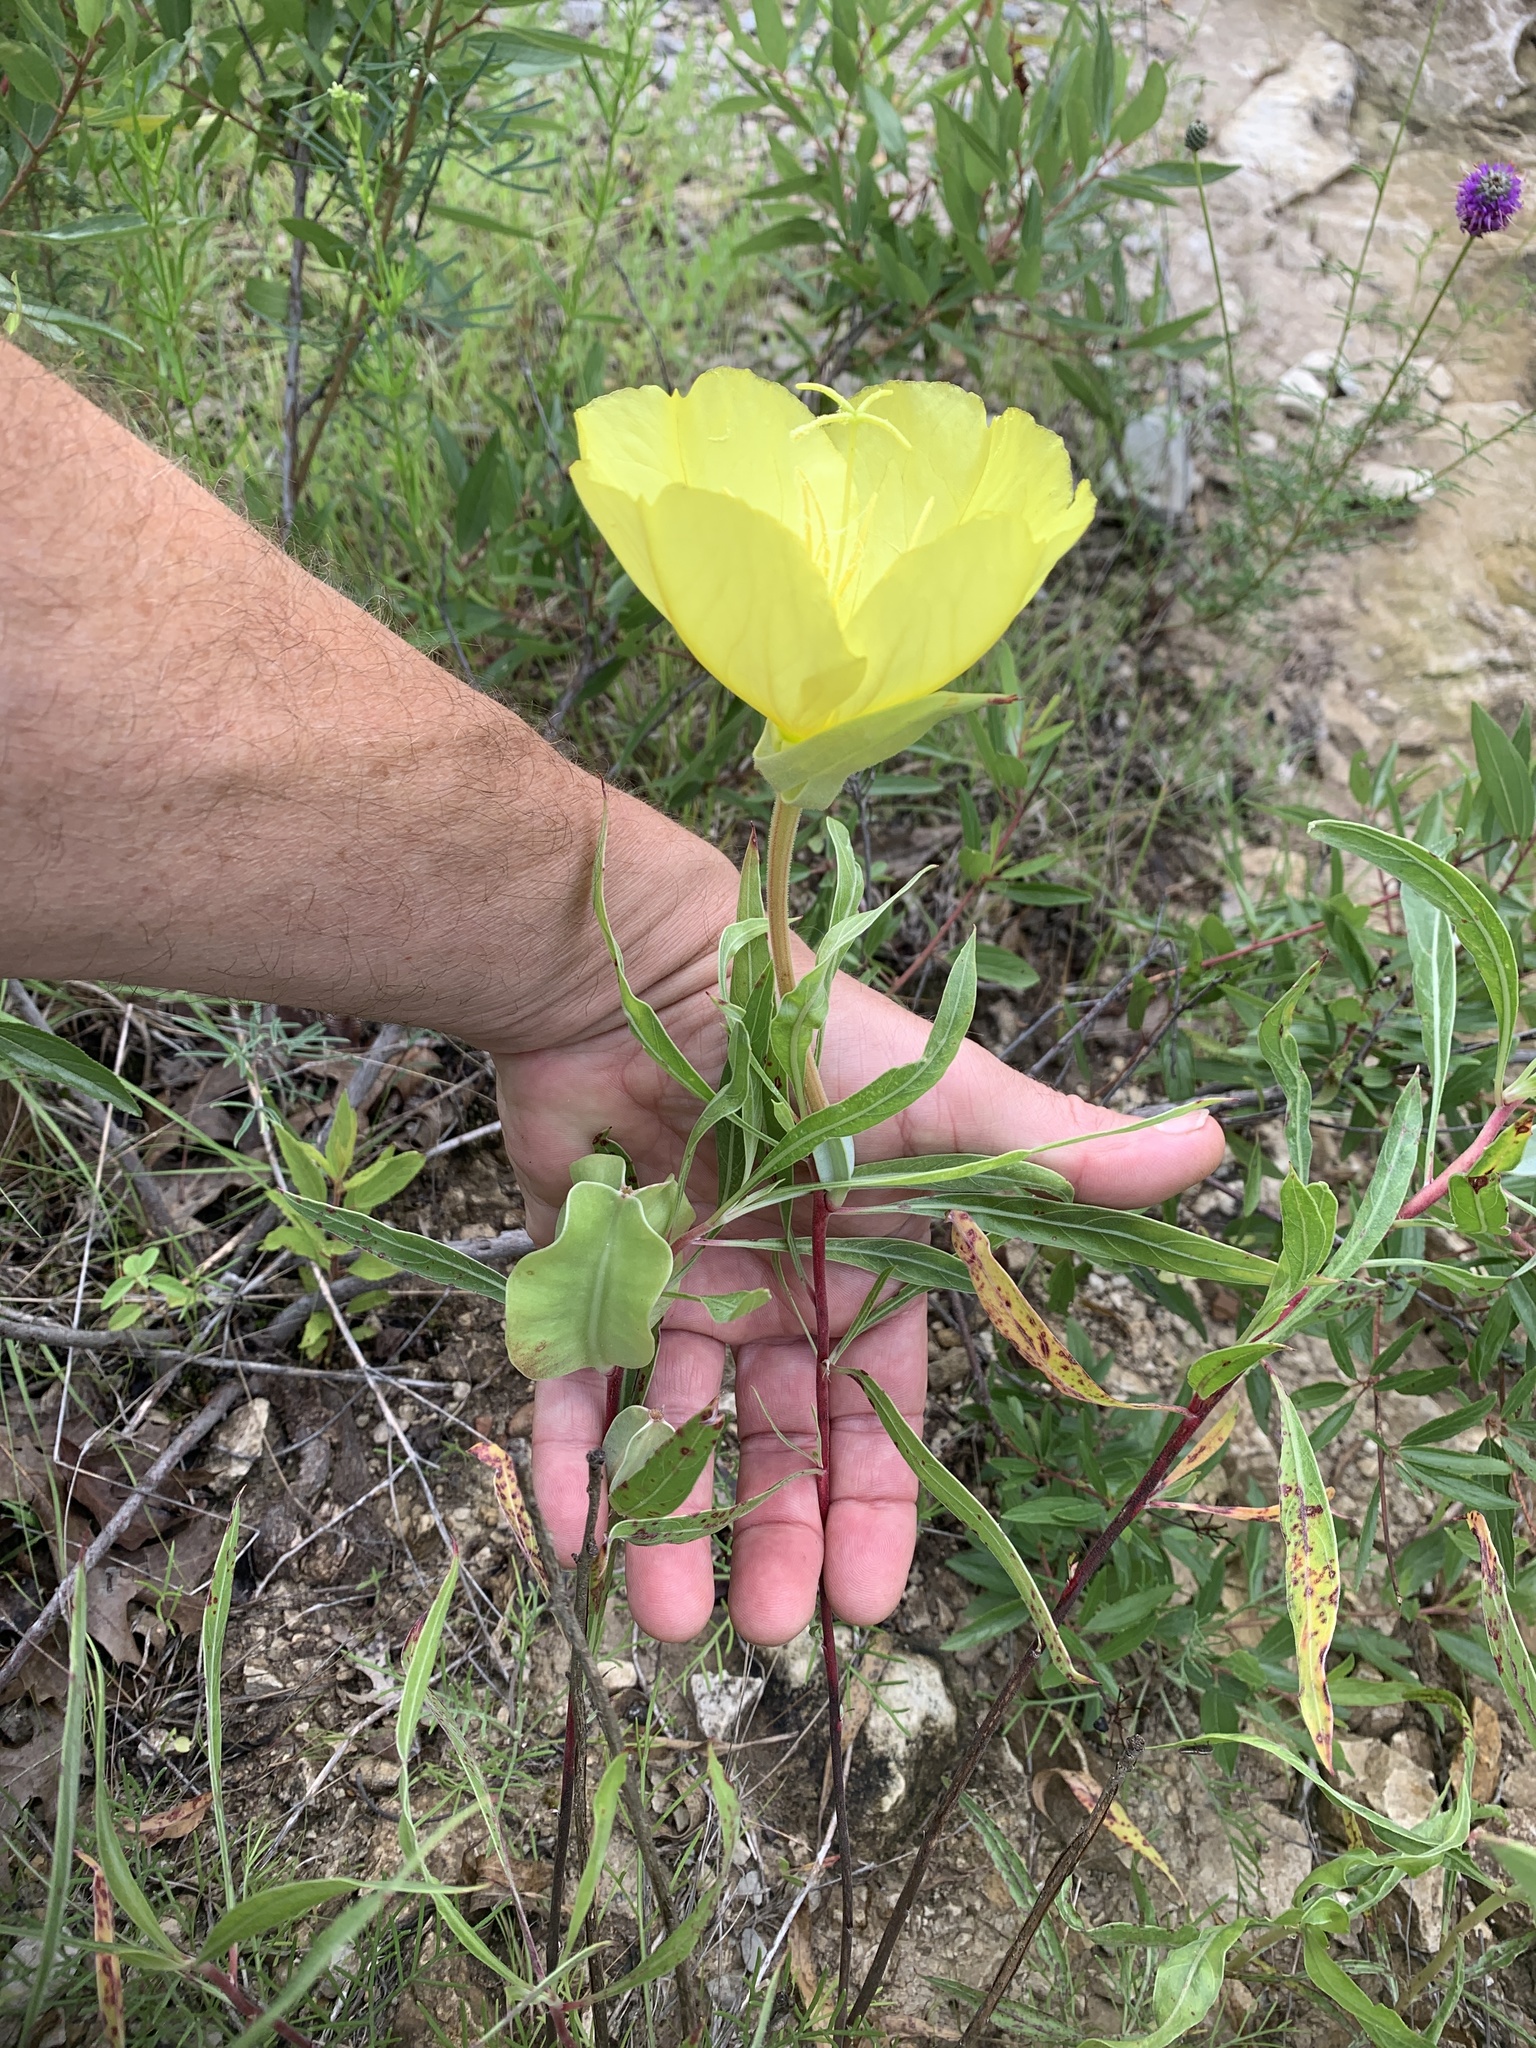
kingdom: Plantae
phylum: Tracheophyta
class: Magnoliopsida
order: Myrtales
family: Onagraceae
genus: Oenothera
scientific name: Oenothera macrocarpa
